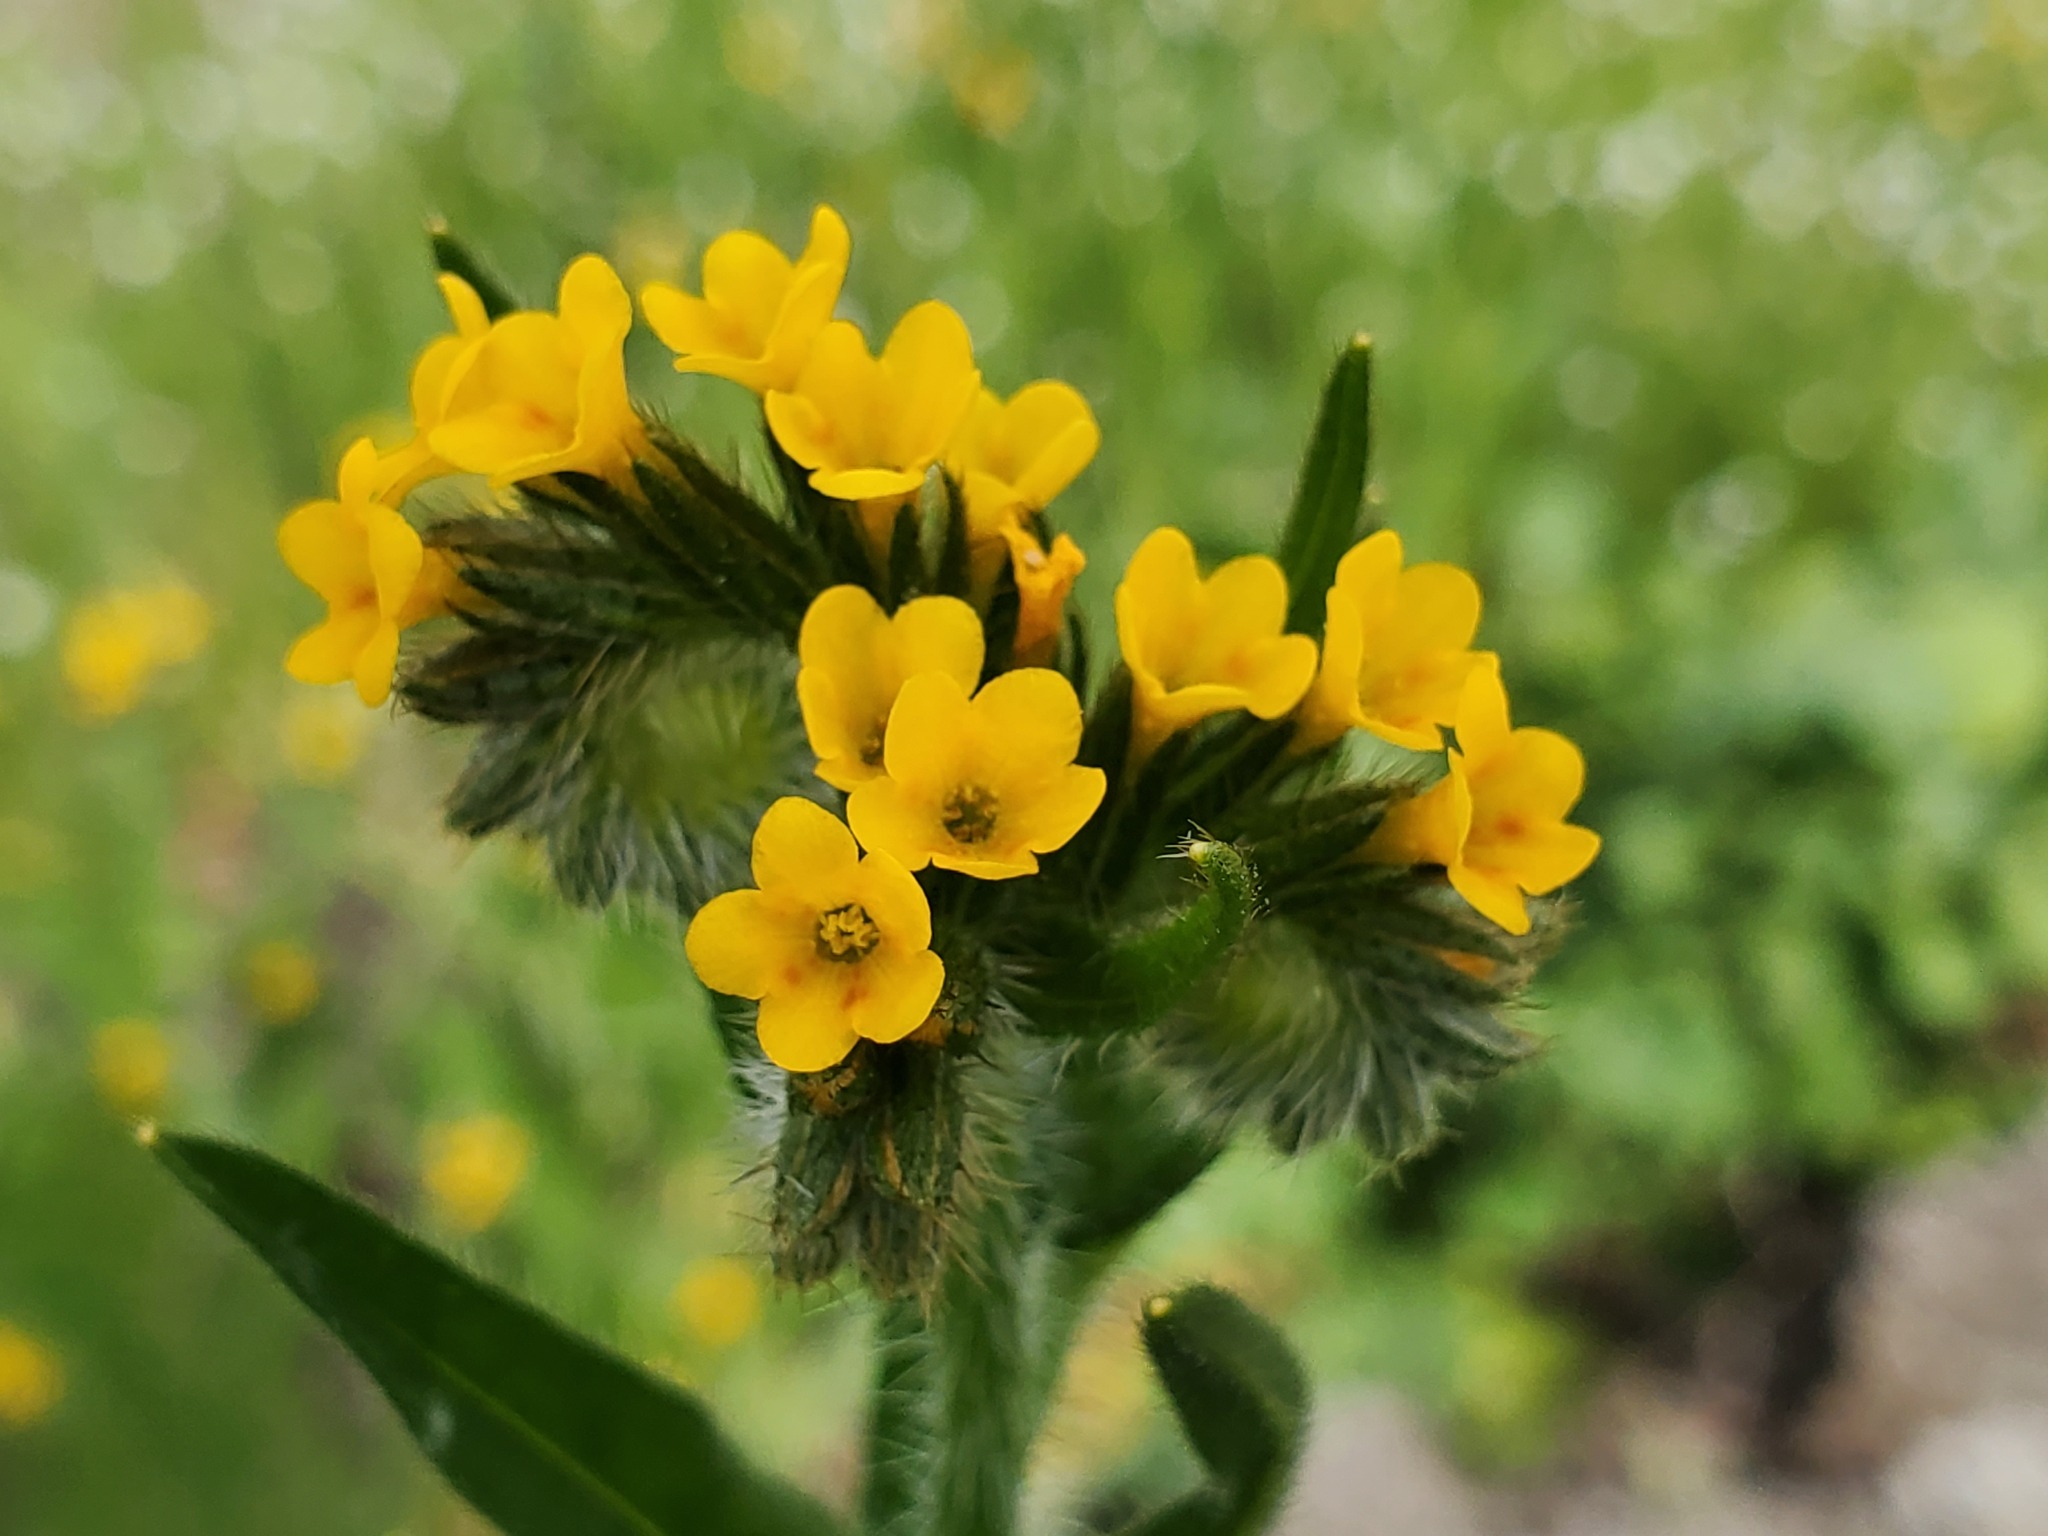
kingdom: Plantae
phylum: Tracheophyta
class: Magnoliopsida
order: Boraginales
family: Boraginaceae
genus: Amsinckia
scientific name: Amsinckia menziesii
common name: Menzies' fiddleneck
